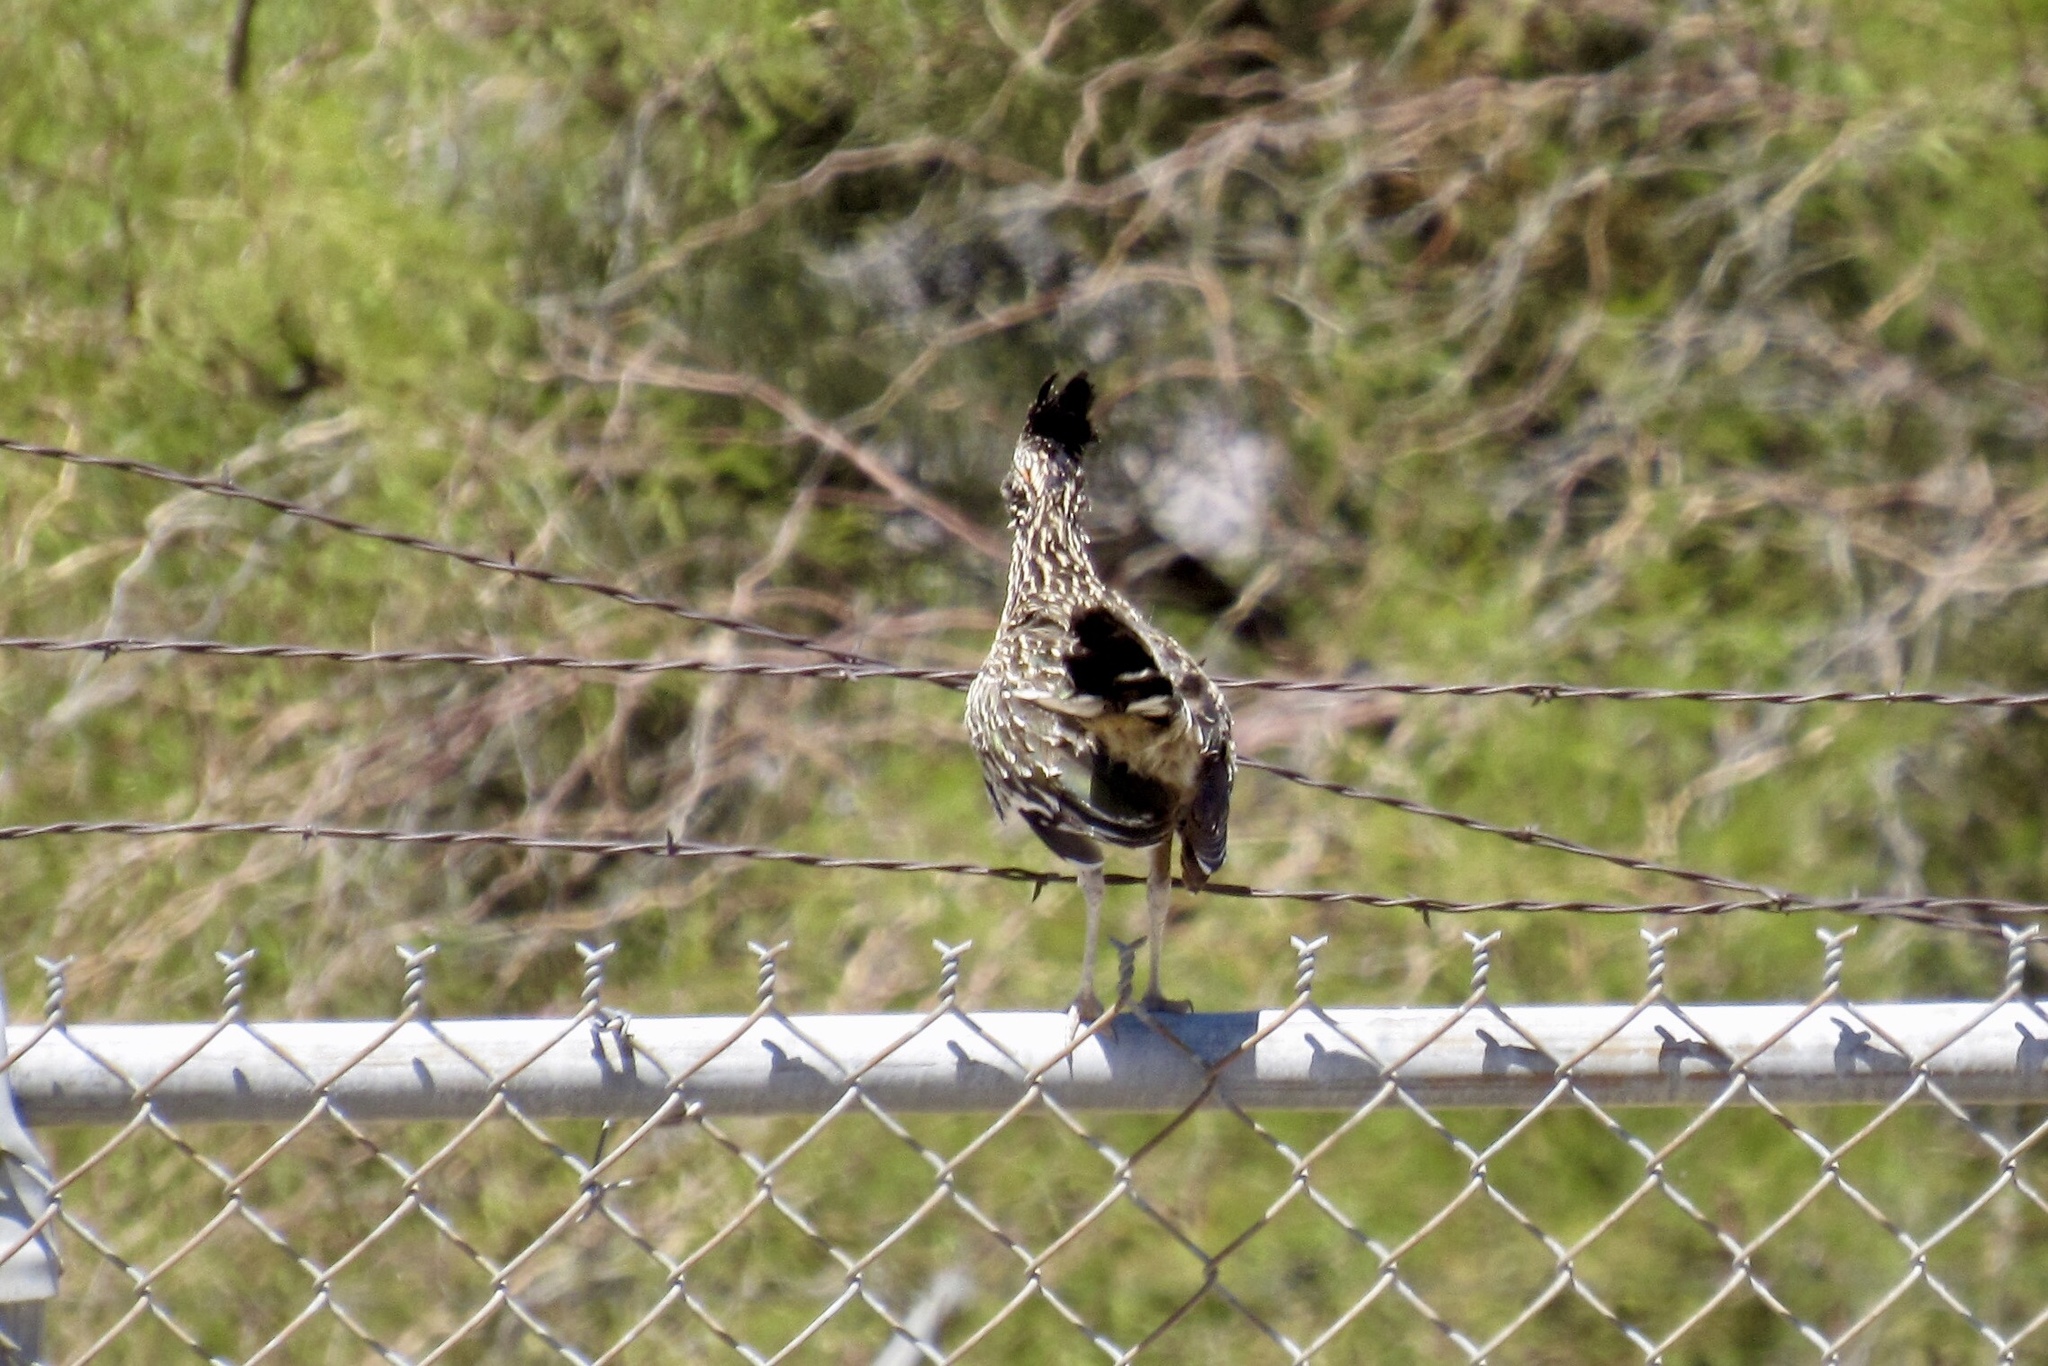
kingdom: Animalia
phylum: Chordata
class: Aves
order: Cuculiformes
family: Cuculidae
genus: Geococcyx
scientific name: Geococcyx californianus
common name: Greater roadrunner
